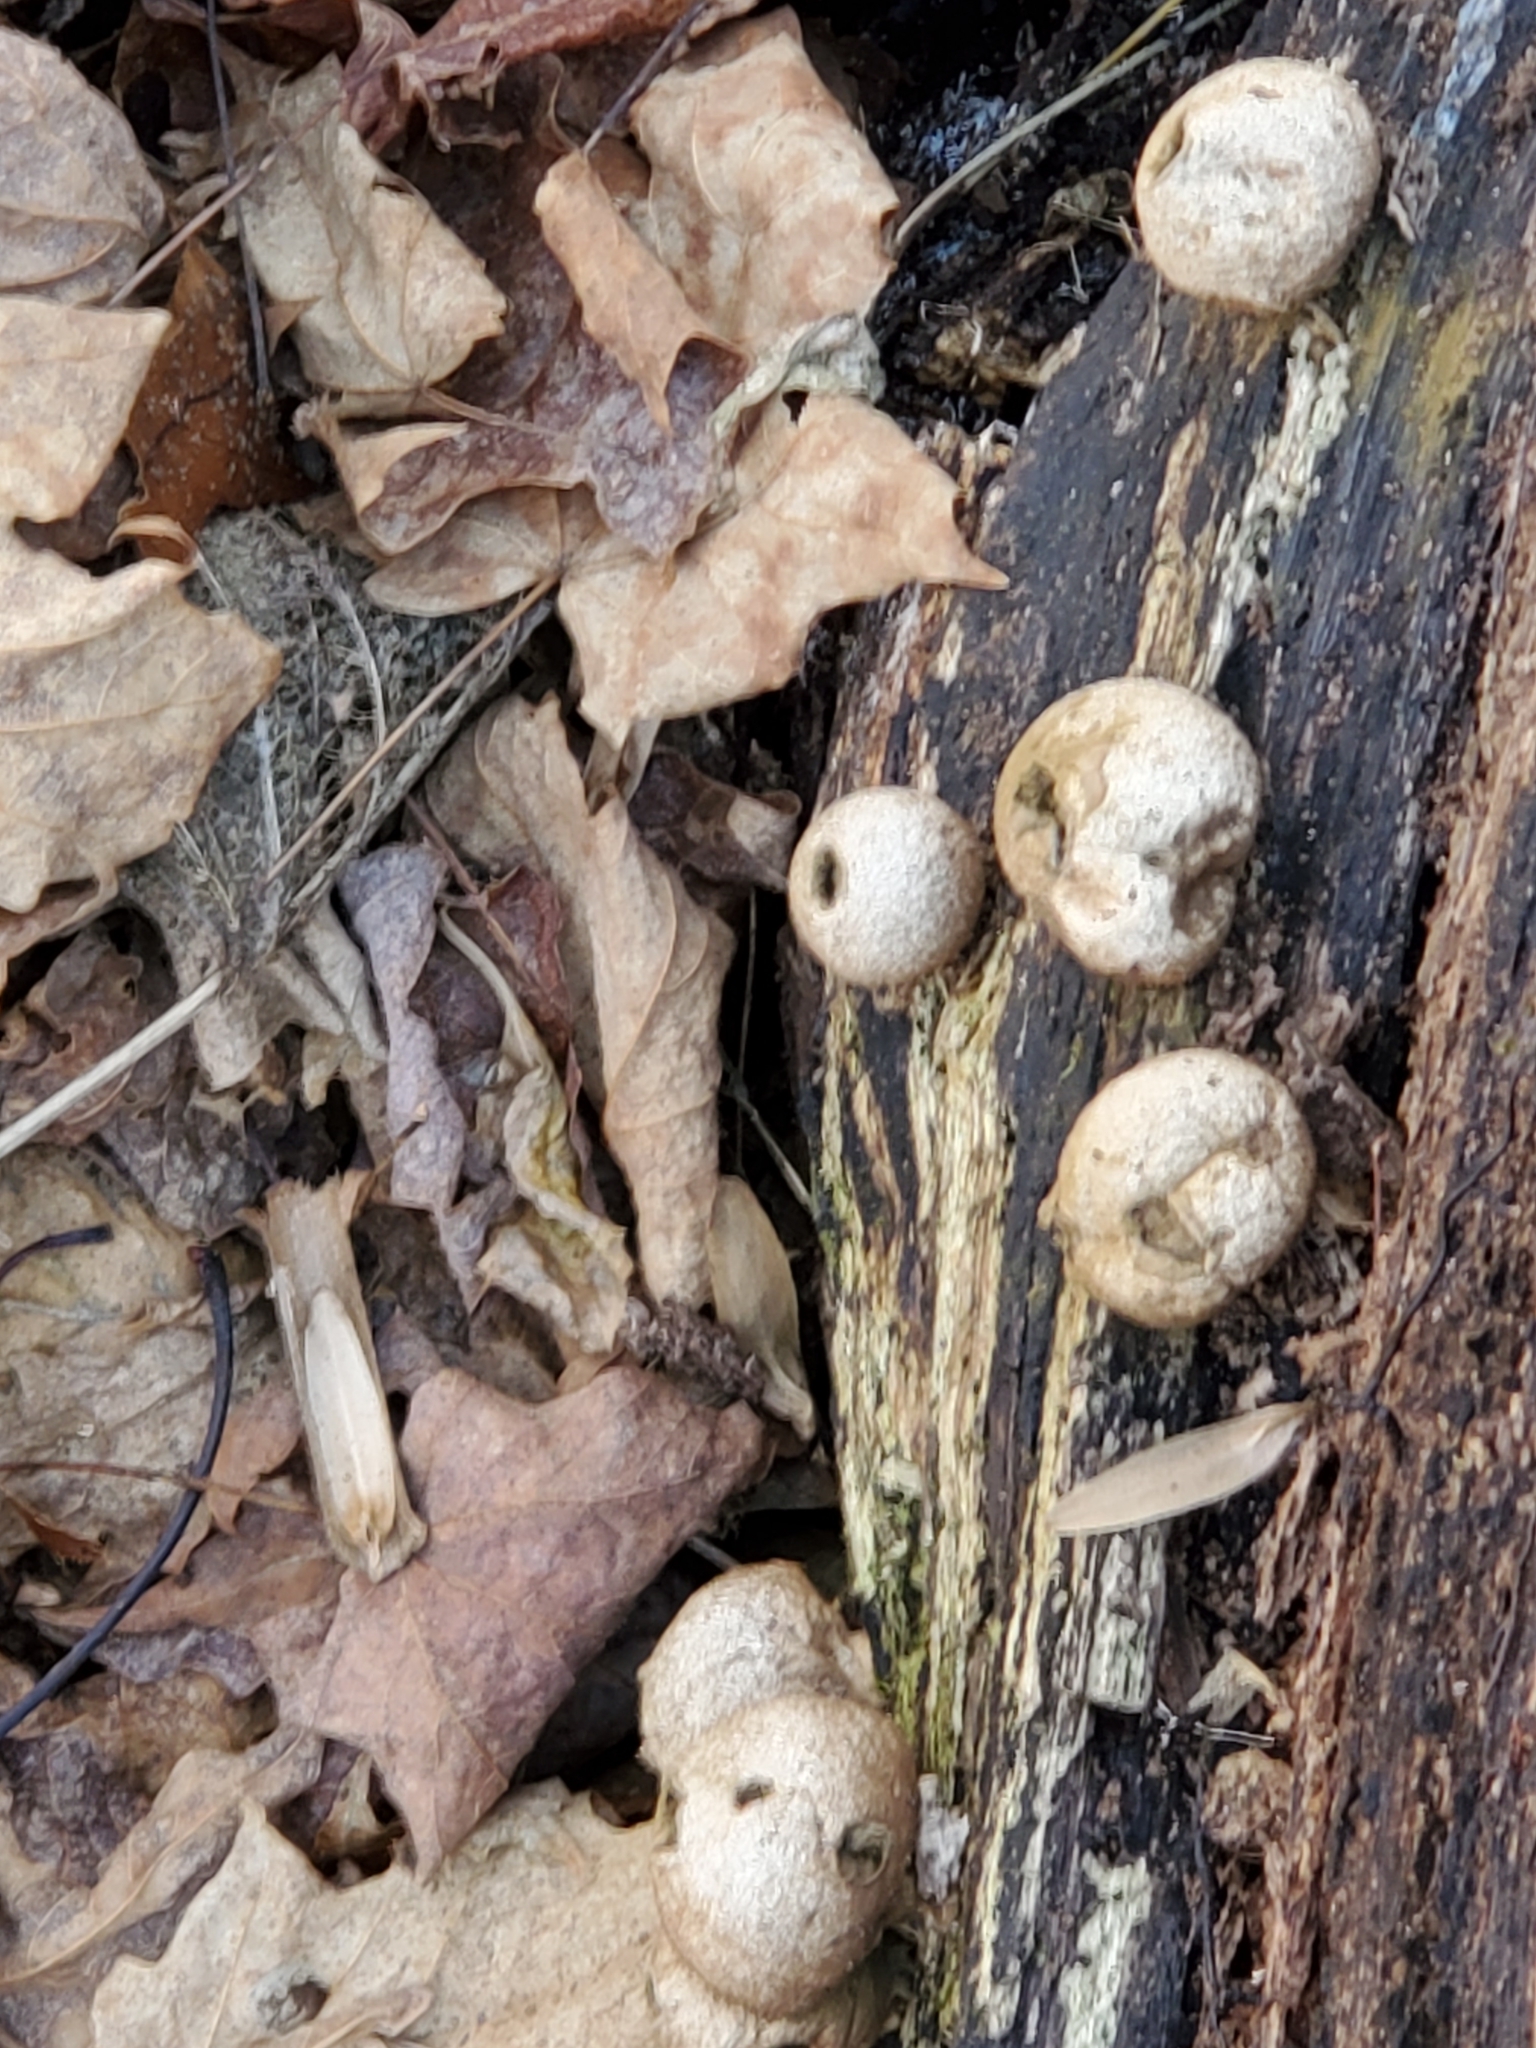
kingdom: Fungi
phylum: Basidiomycota
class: Agaricomycetes
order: Agaricales
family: Lycoperdaceae
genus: Apioperdon
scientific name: Apioperdon pyriforme
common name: Pear-shaped puffball
